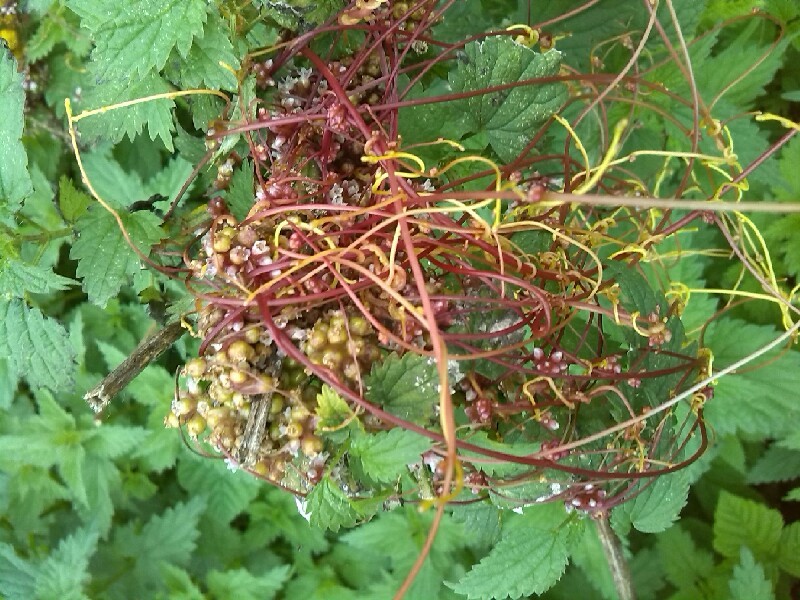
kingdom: Plantae
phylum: Tracheophyta
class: Magnoliopsida
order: Solanales
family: Convolvulaceae
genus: Cuscuta
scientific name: Cuscuta europaea
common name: Greater dodder
